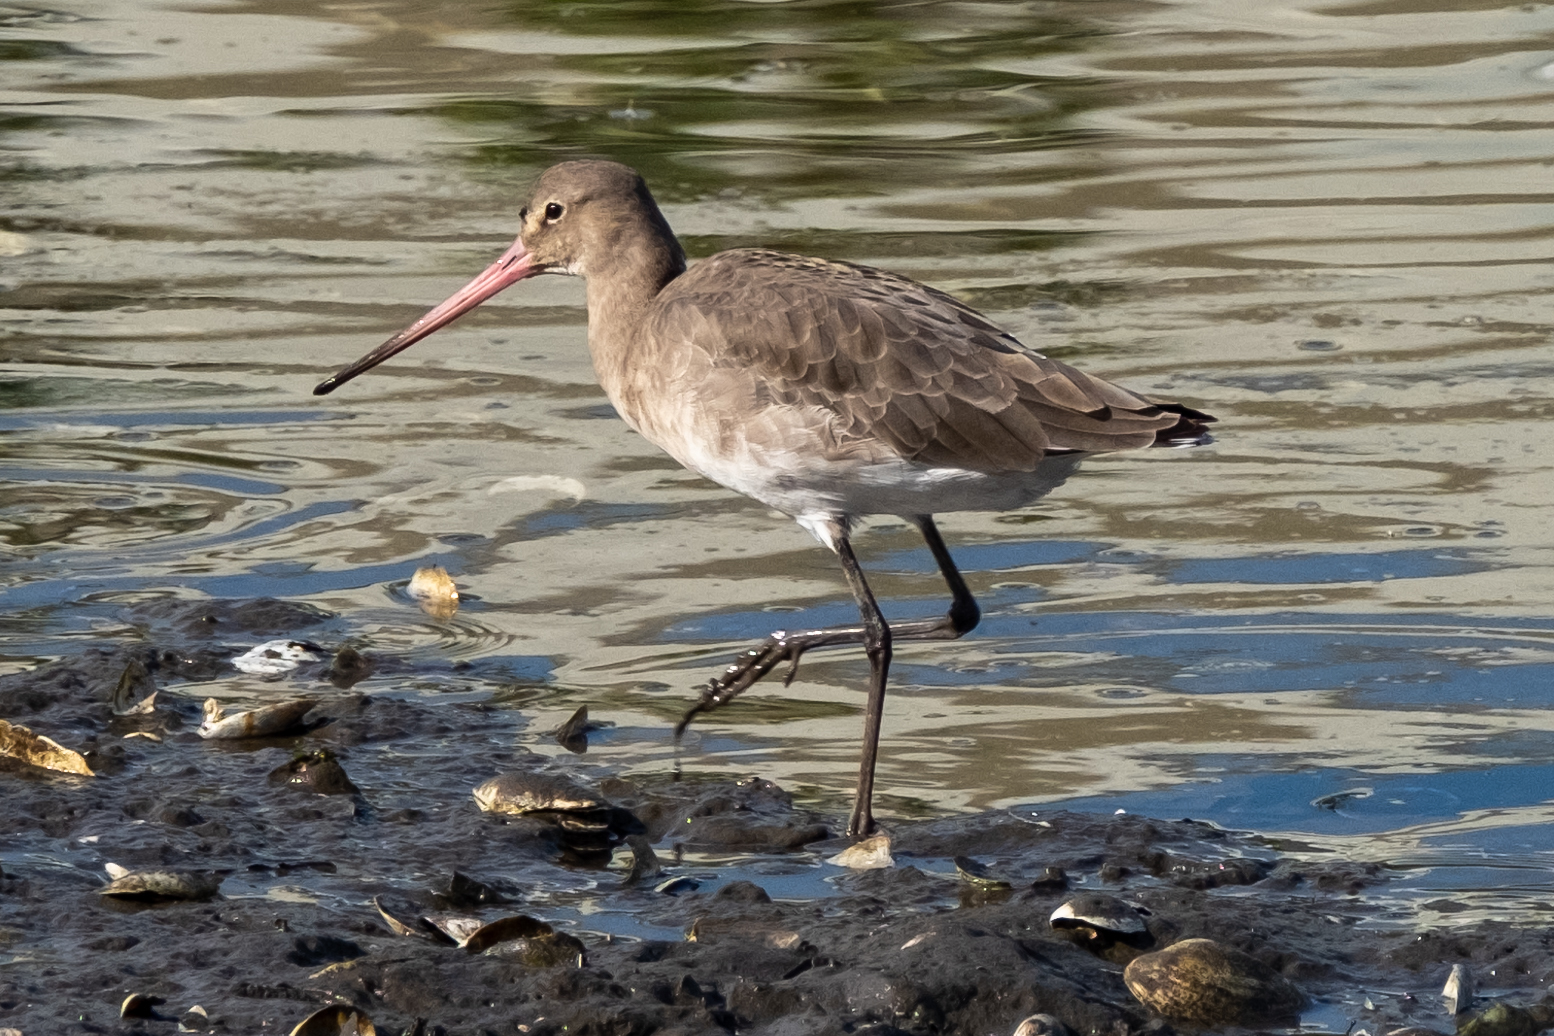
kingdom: Animalia
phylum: Chordata
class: Aves
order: Charadriiformes
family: Scolopacidae
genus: Limosa
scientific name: Limosa limosa
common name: Black-tailed godwit
